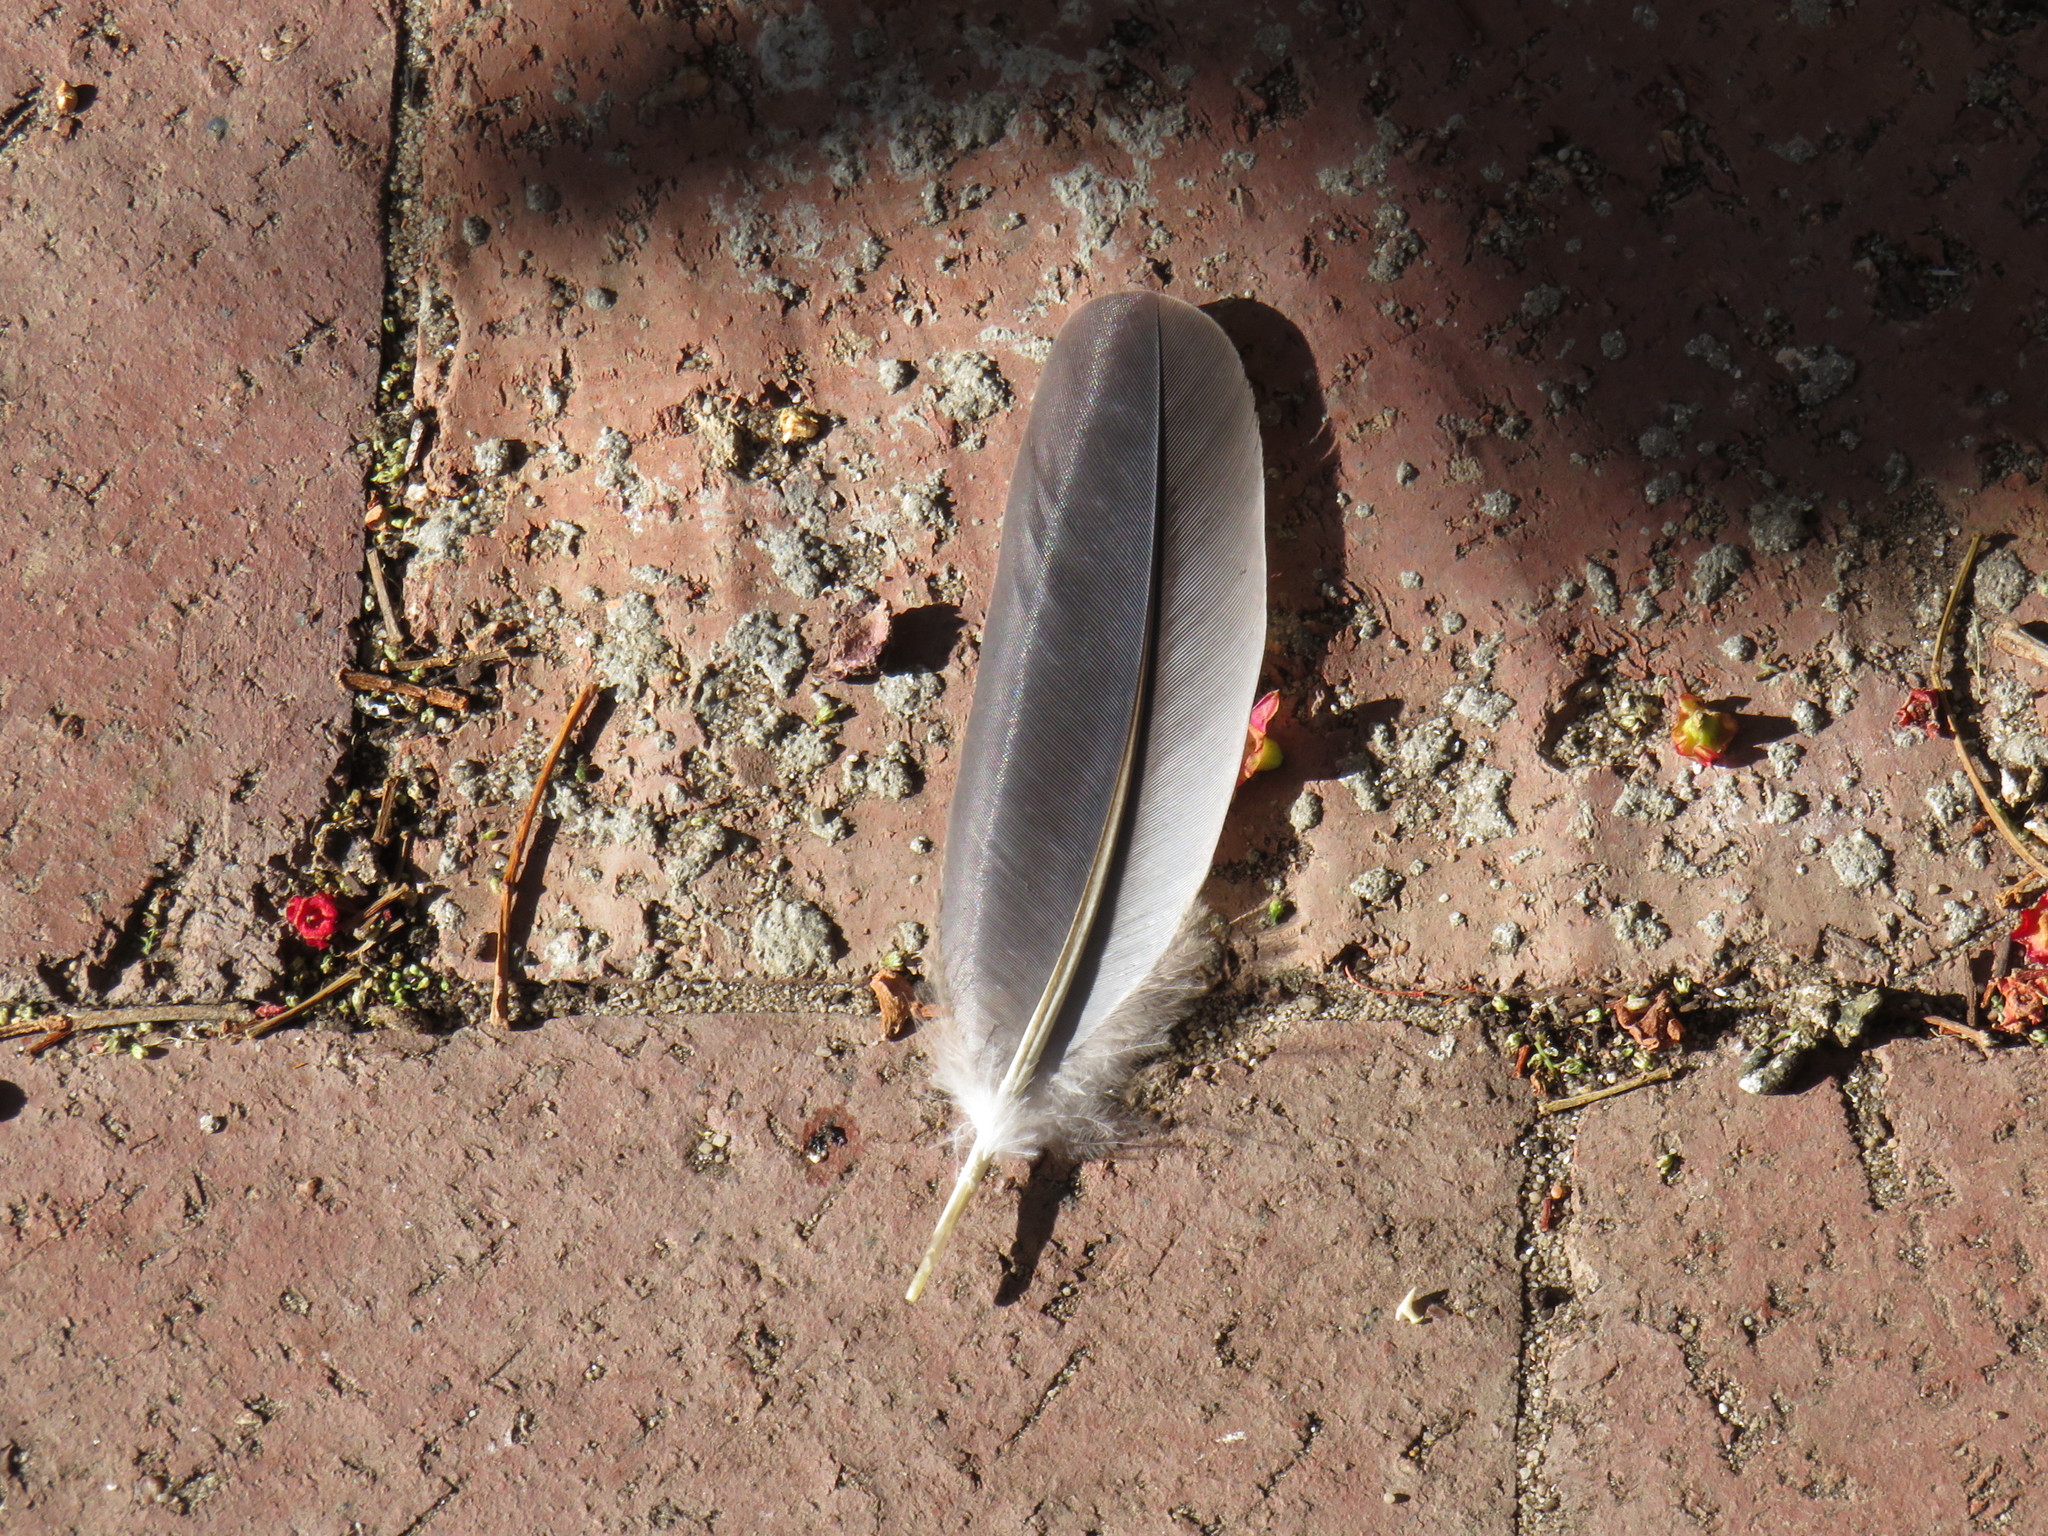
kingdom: Animalia
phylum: Chordata
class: Aves
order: Columbiformes
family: Columbidae
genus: Streptopelia
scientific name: Streptopelia semitorquata
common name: Red-eyed dove
